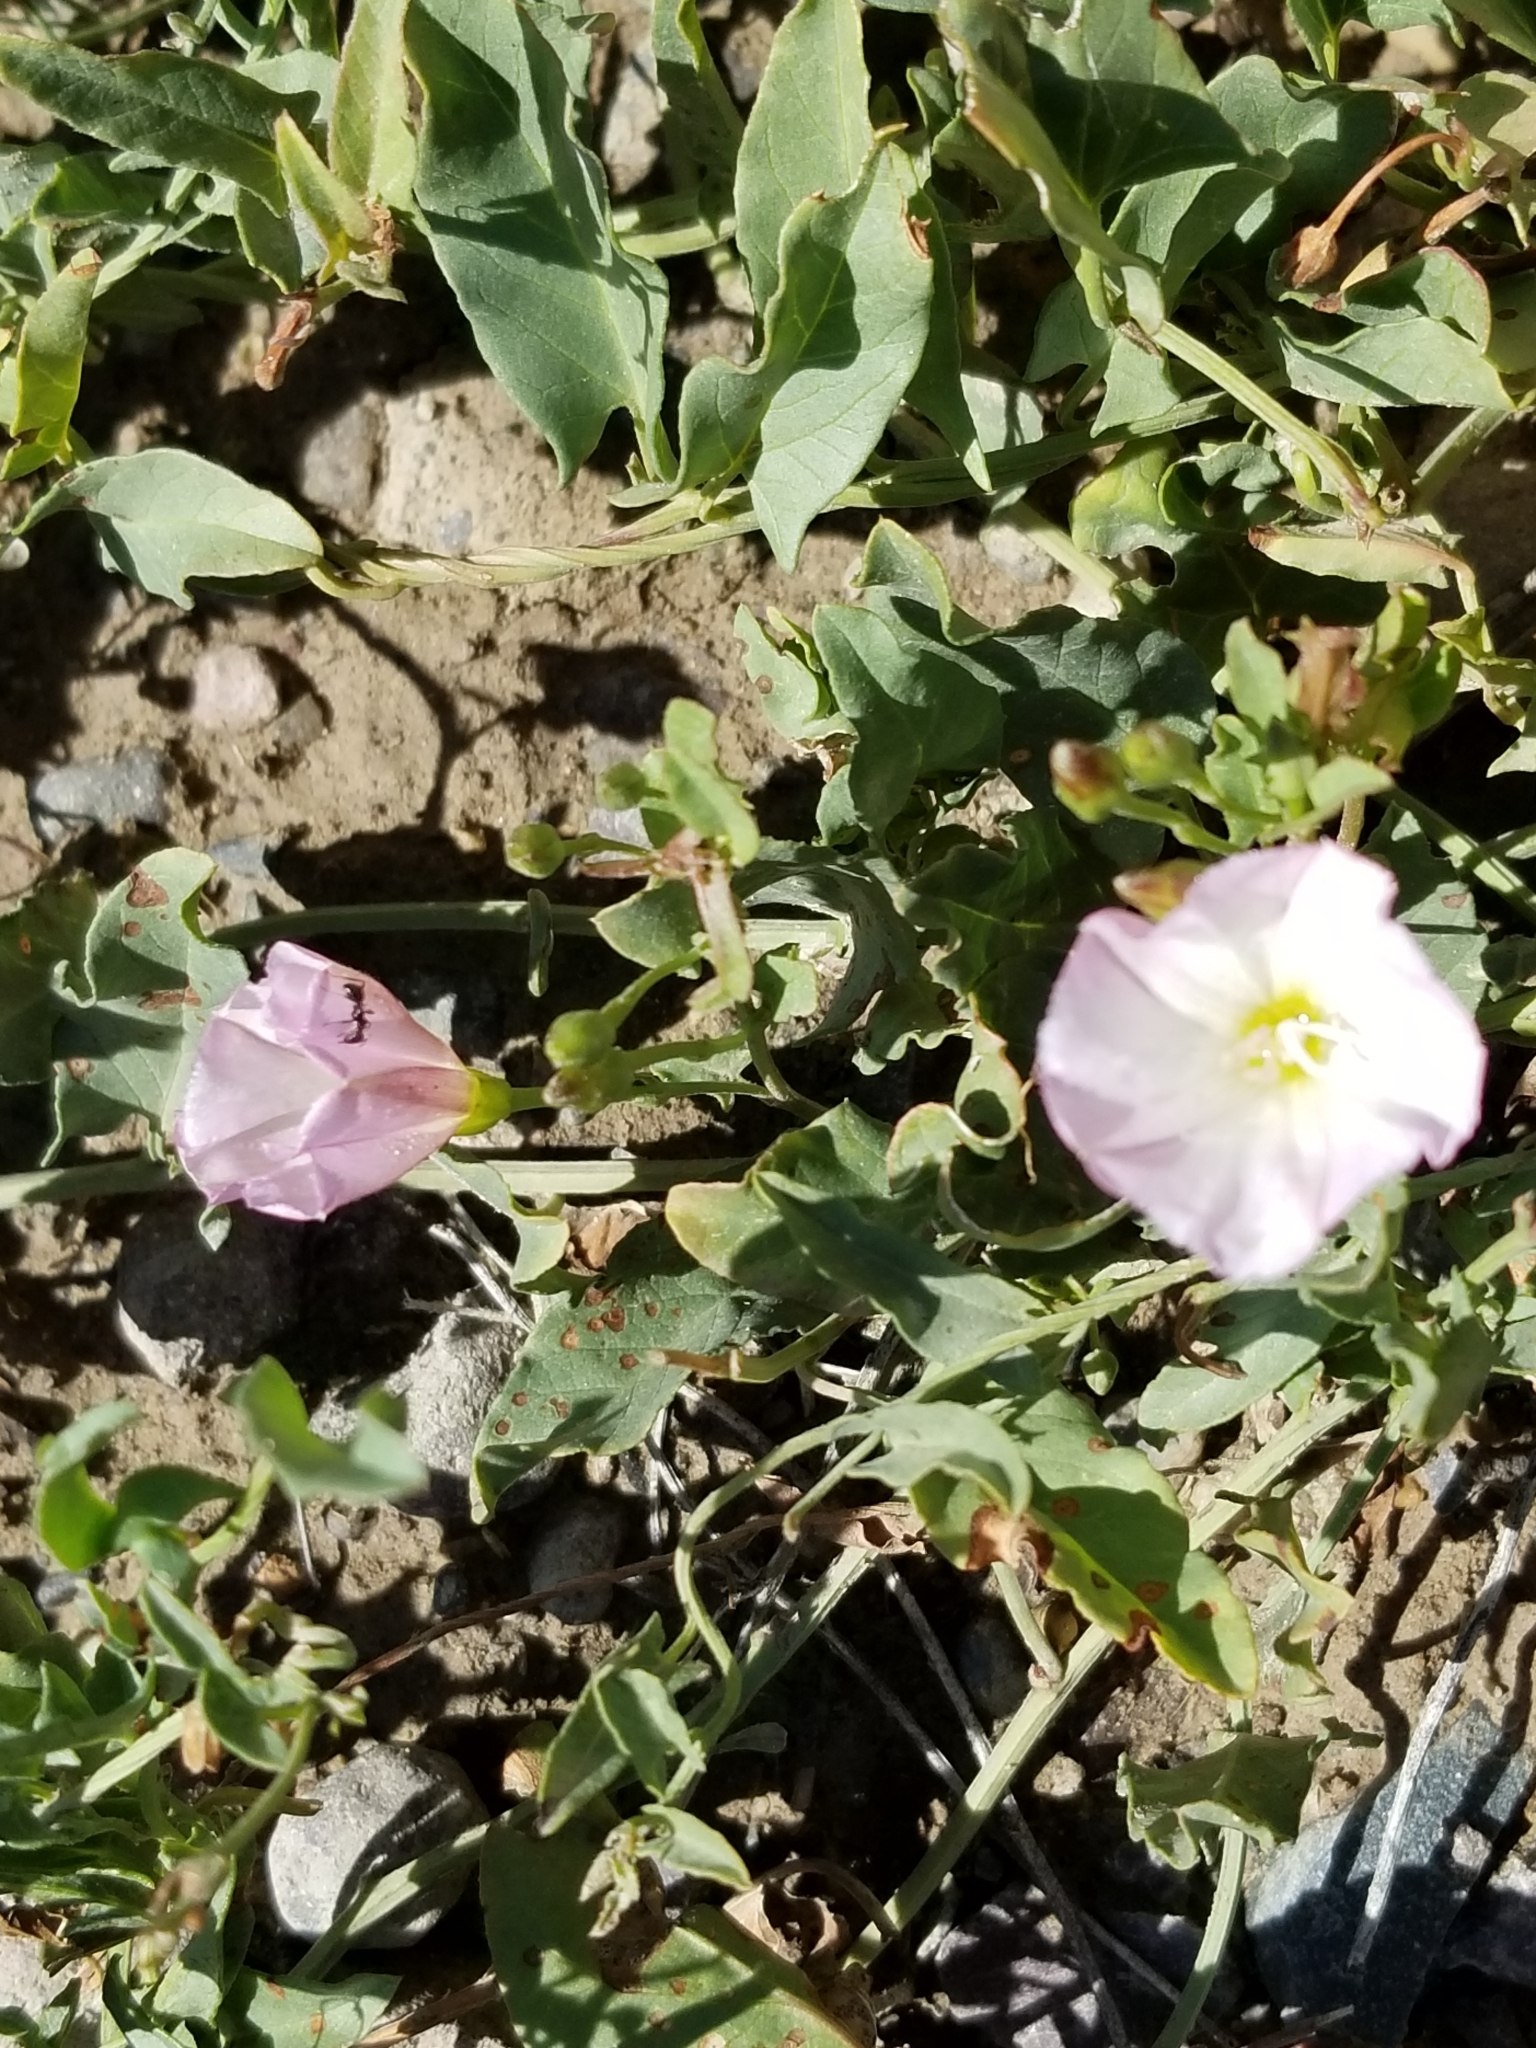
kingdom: Plantae
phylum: Tracheophyta
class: Magnoliopsida
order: Solanales
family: Convolvulaceae
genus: Convolvulus
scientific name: Convolvulus arvensis
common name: Field bindweed
